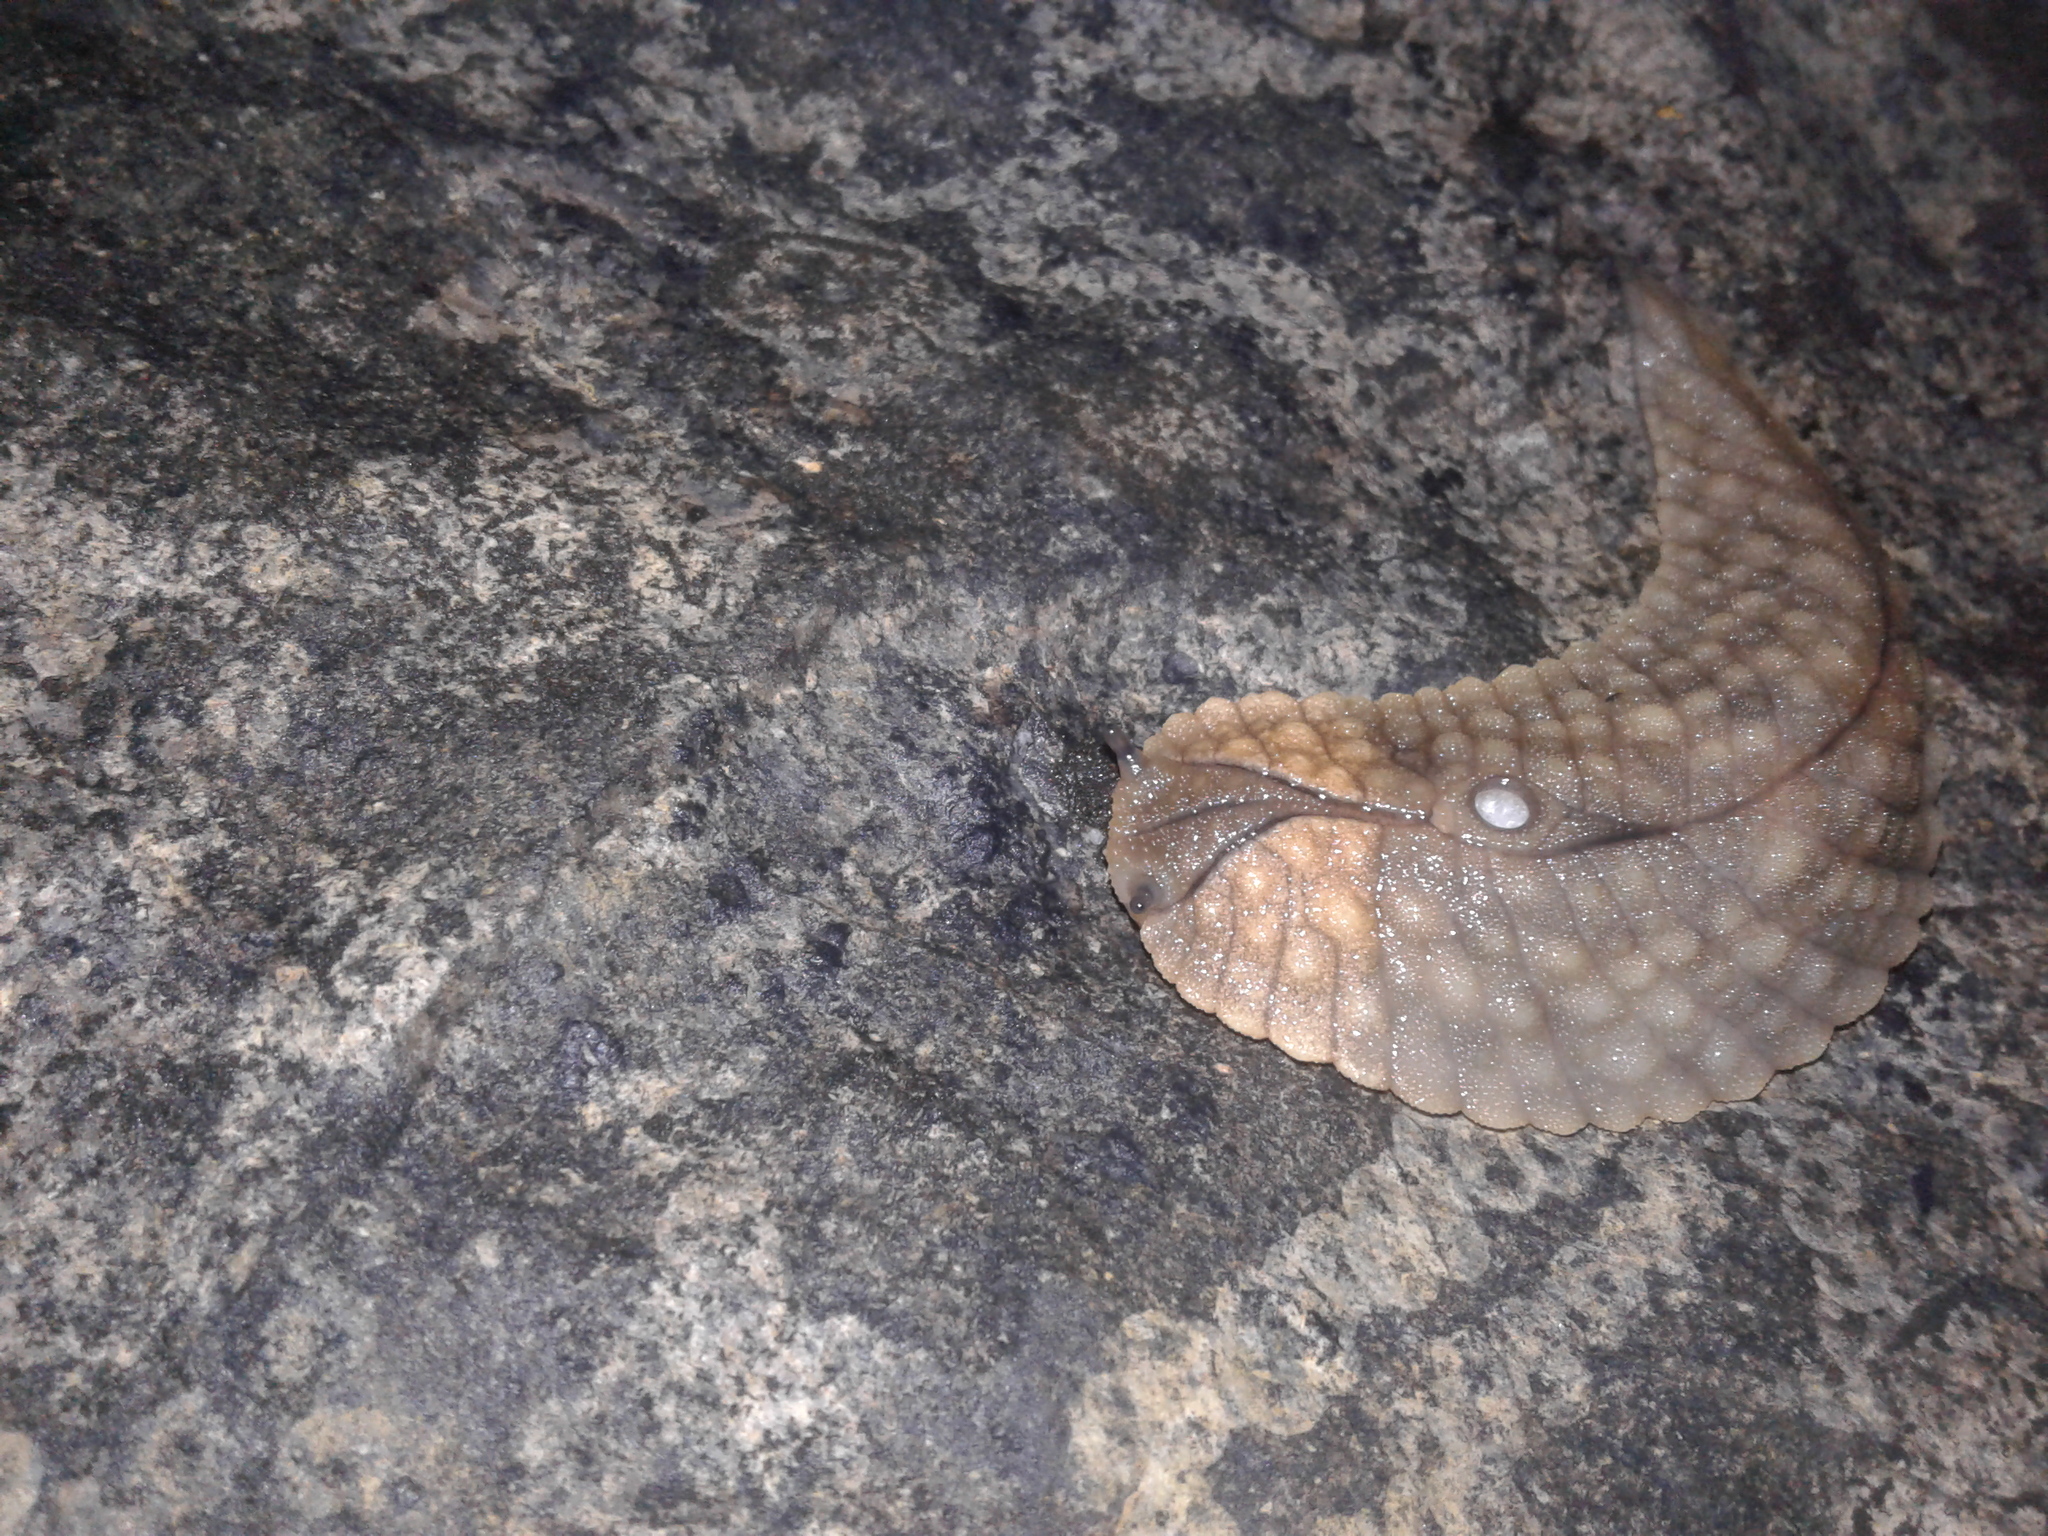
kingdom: Animalia
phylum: Mollusca
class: Gastropoda
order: Stylommatophora
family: Athoracophoridae
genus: Pseudaneitea
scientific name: Pseudaneitea gigantea
